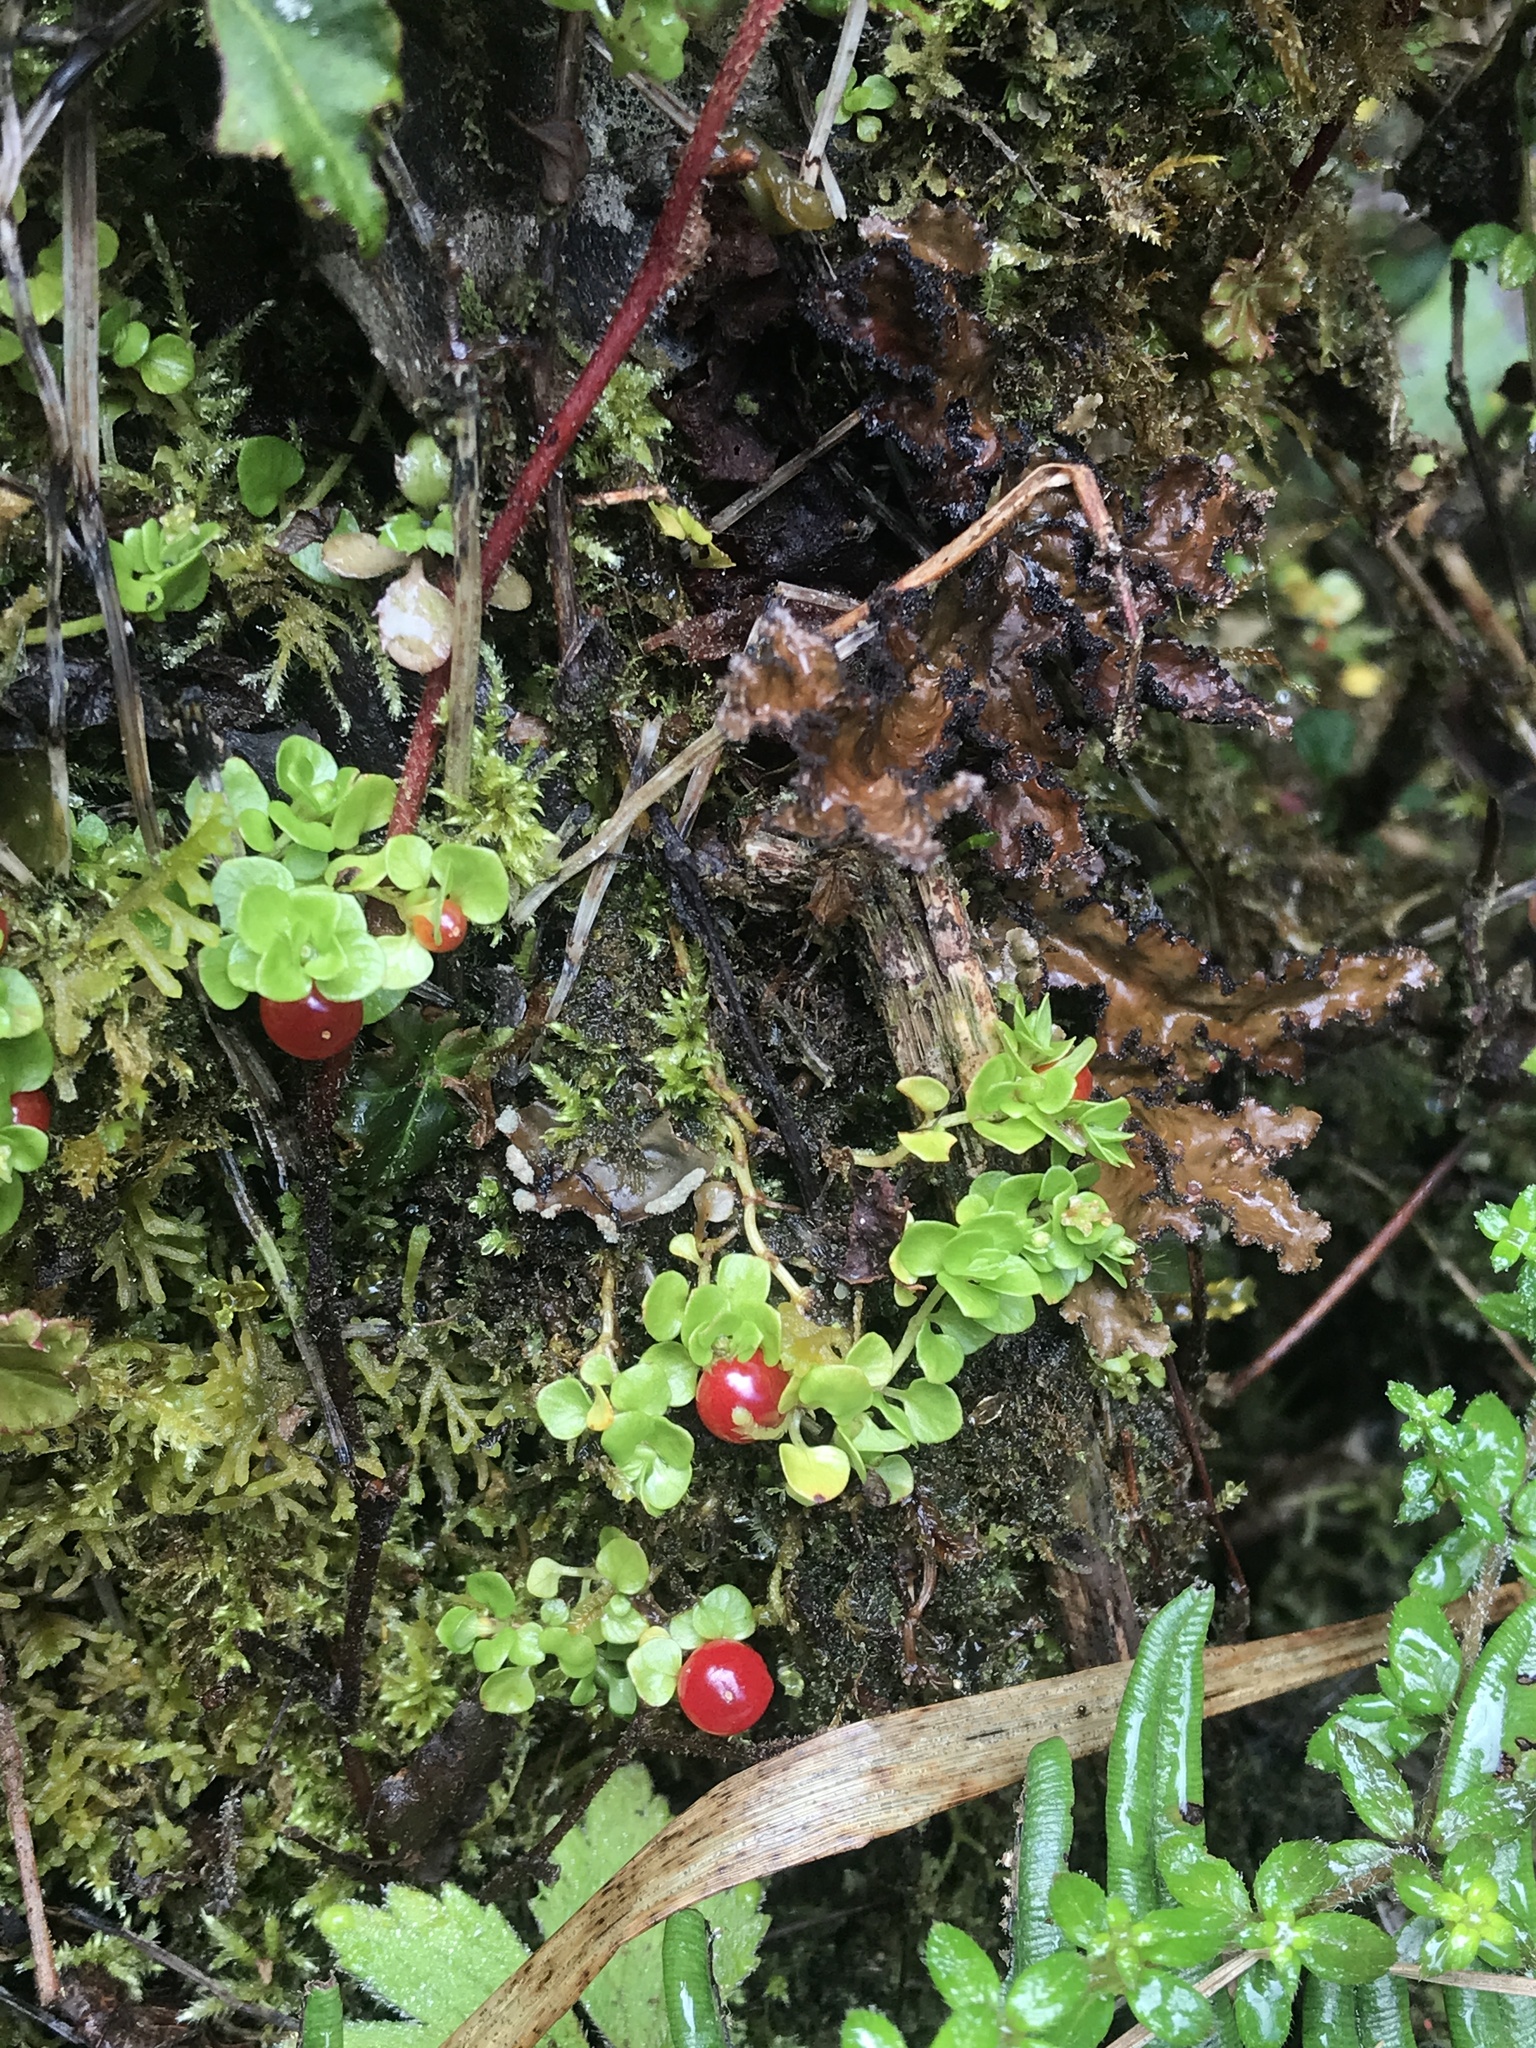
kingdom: Plantae
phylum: Tracheophyta
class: Magnoliopsida
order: Gentianales
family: Rubiaceae
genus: Nertera
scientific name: Nertera granadensis
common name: Beadplant
